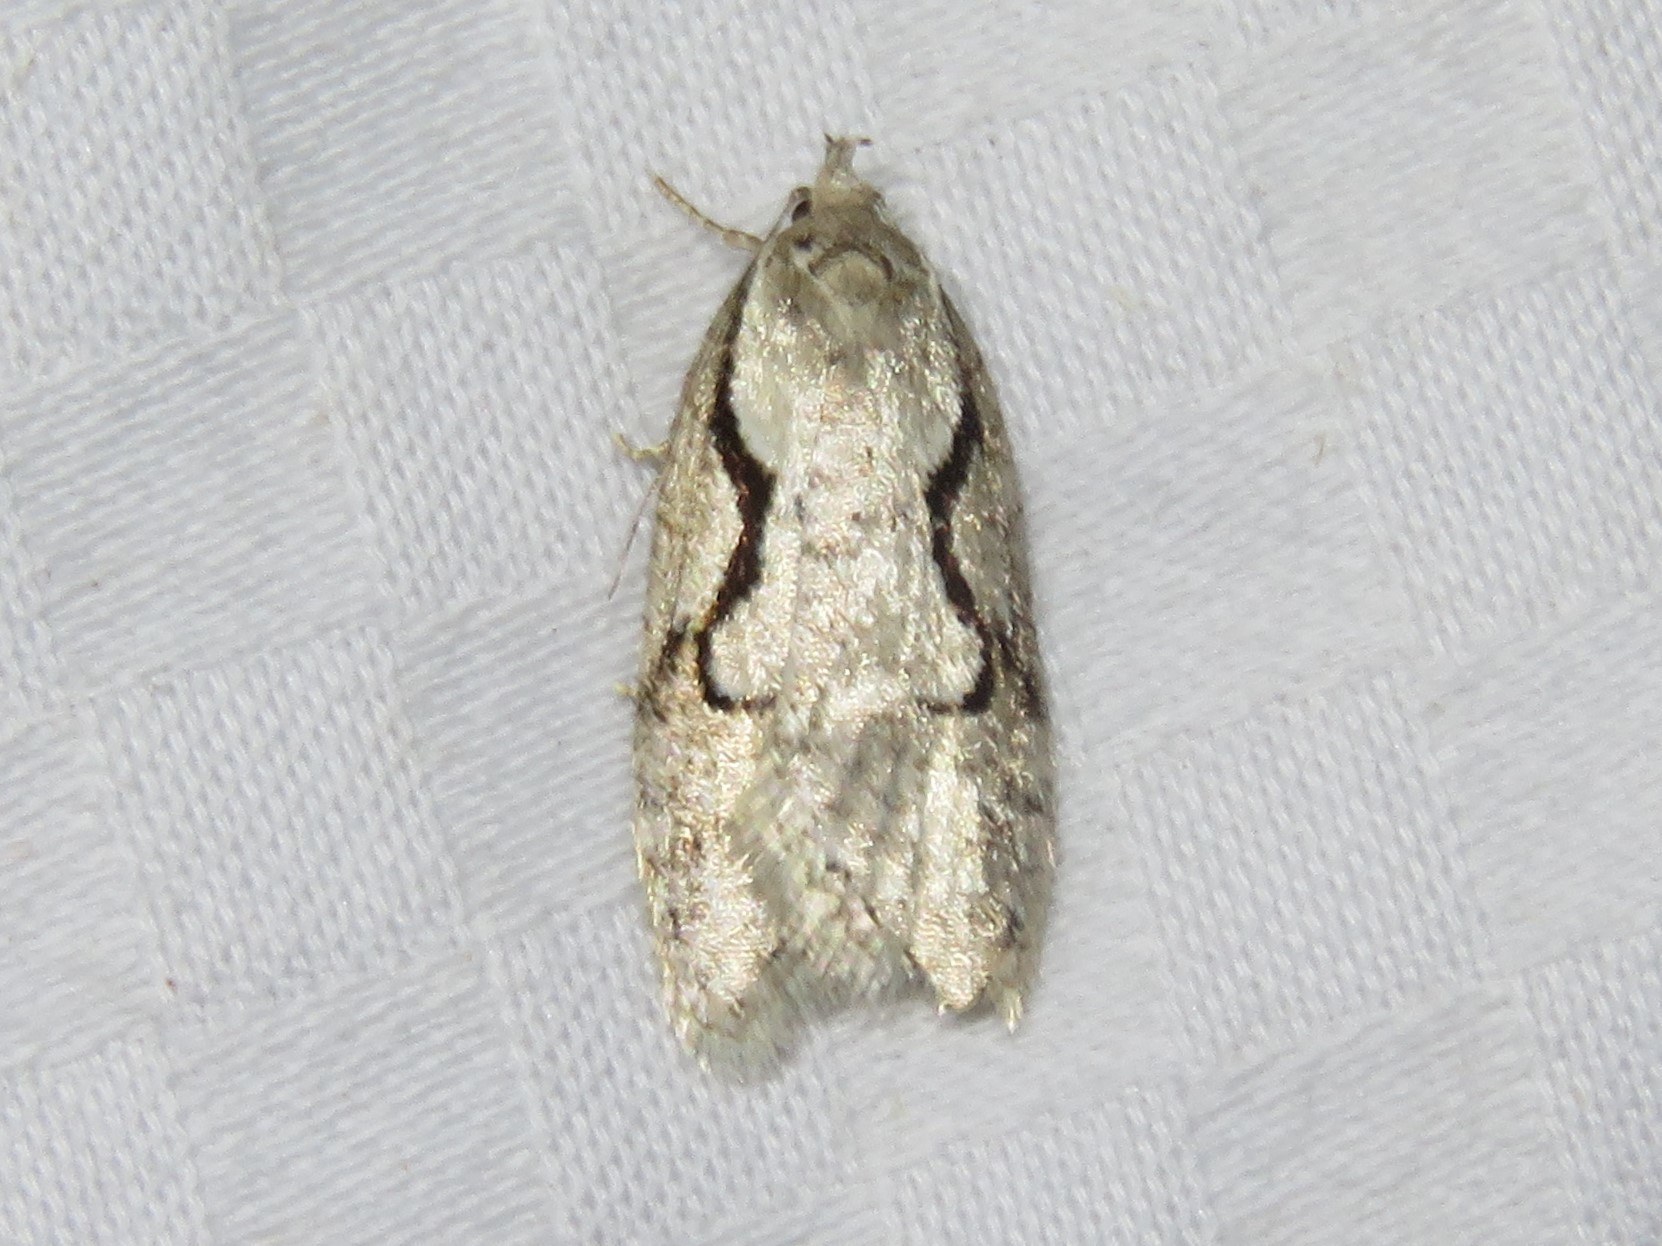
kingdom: Animalia
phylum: Arthropoda
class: Insecta
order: Lepidoptera
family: Depressariidae
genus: Semioscopis
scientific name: Semioscopis packardella
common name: Packard's concealer moth
